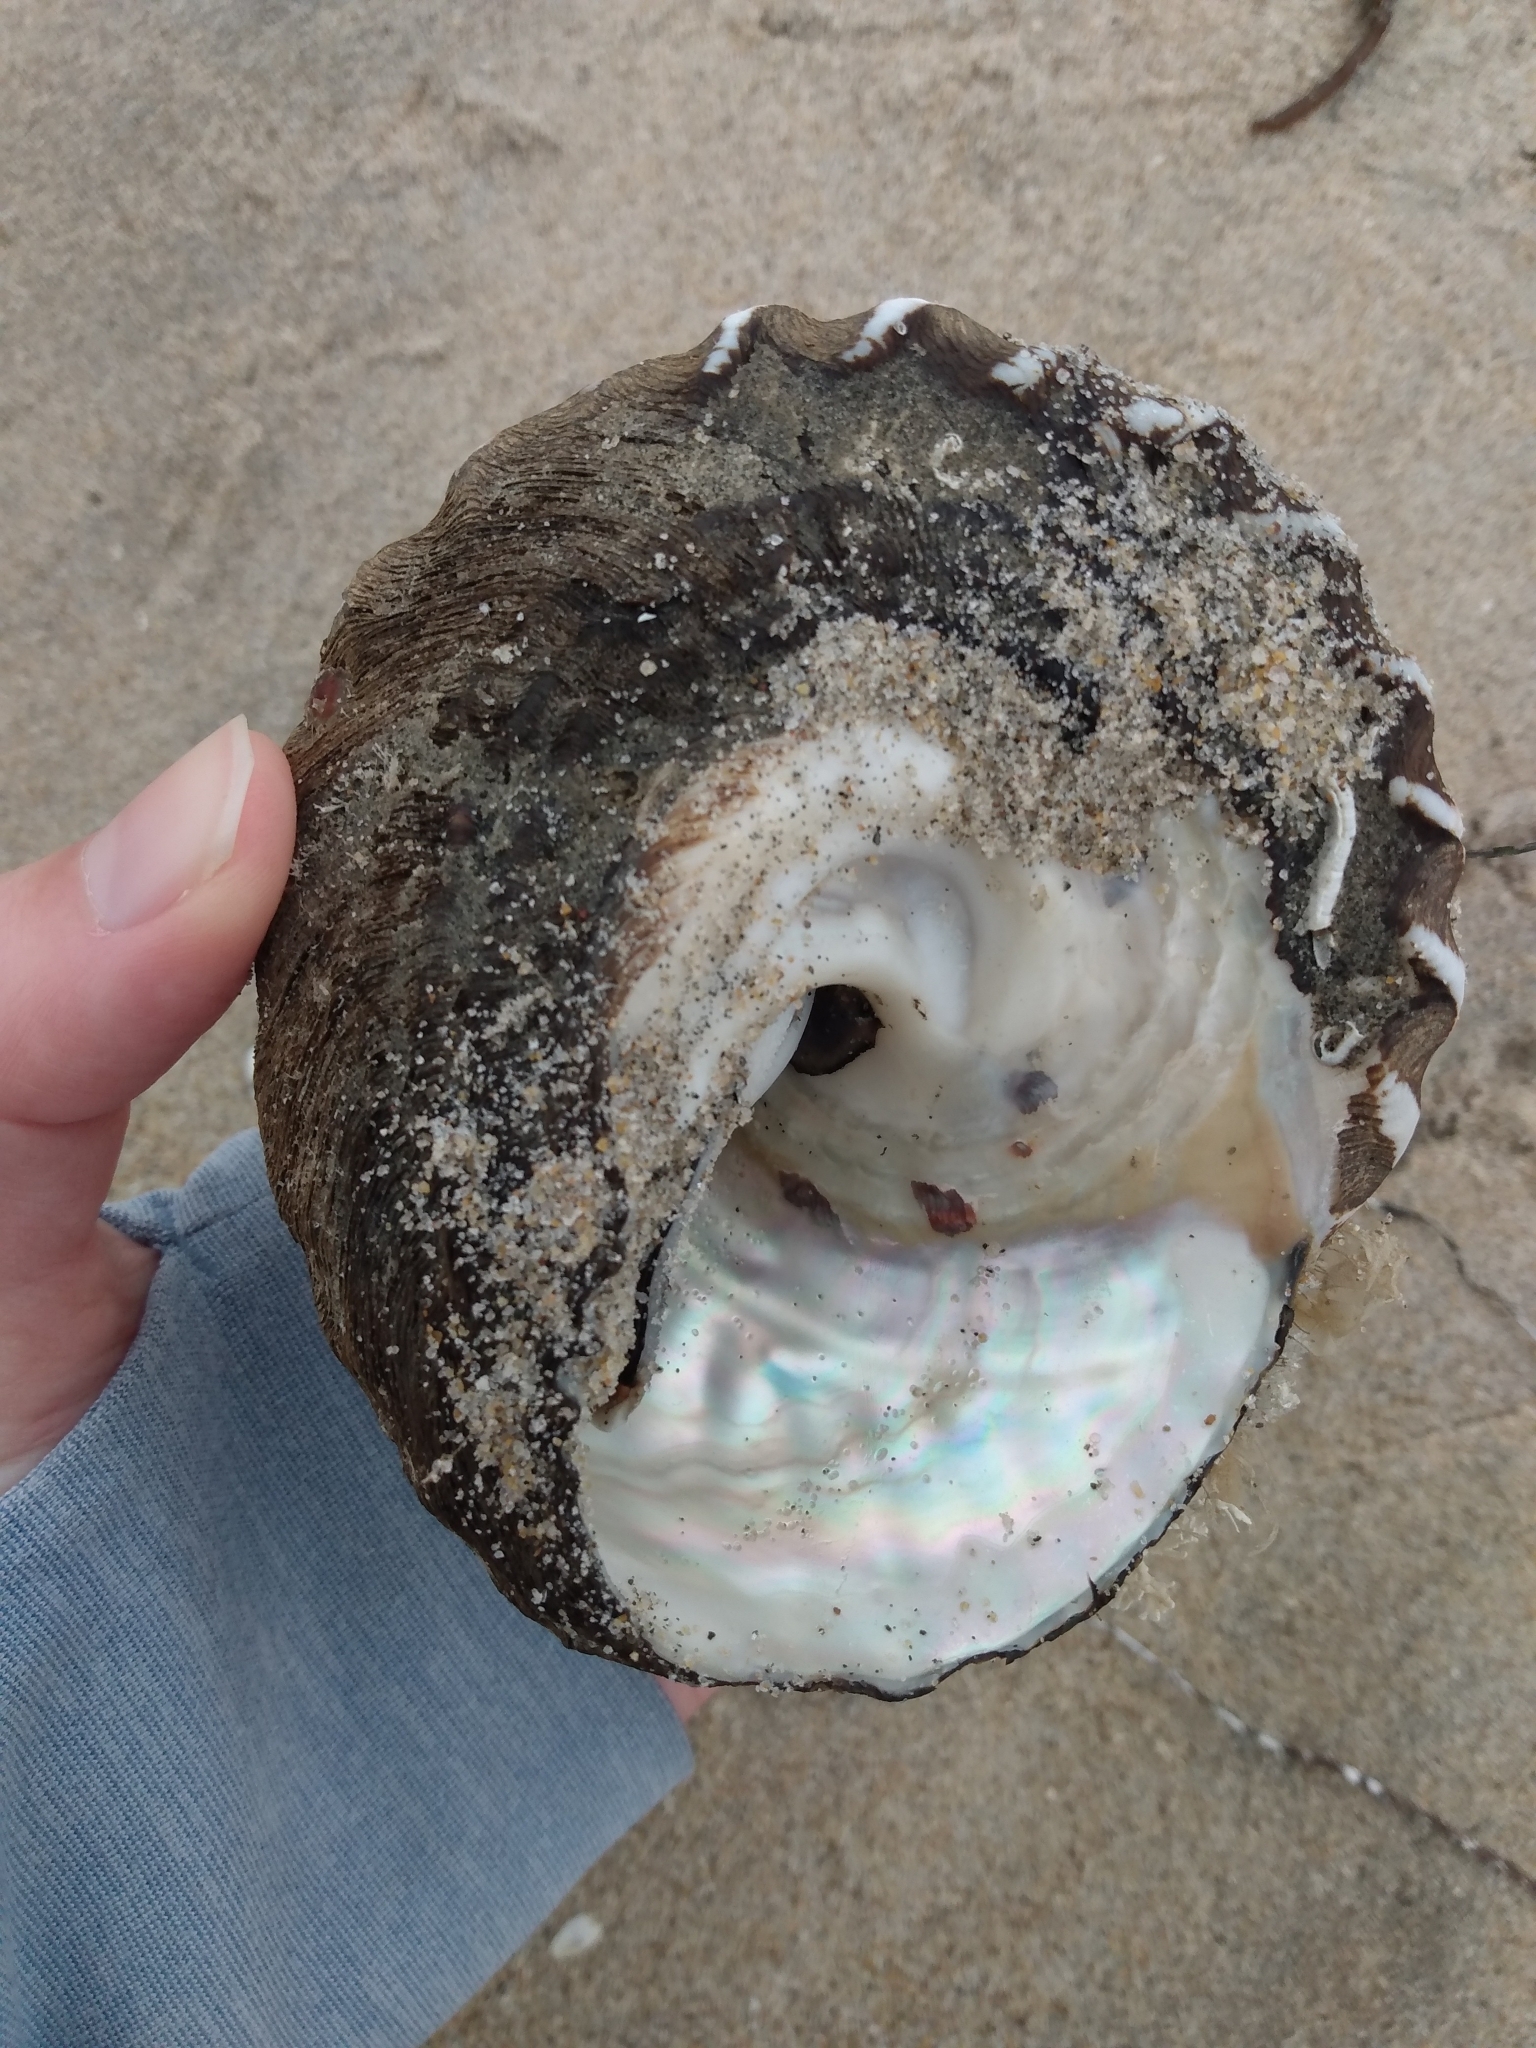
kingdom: Animalia
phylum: Mollusca
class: Gastropoda
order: Trochida
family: Turbinidae
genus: Megastraea
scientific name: Megastraea undosa
